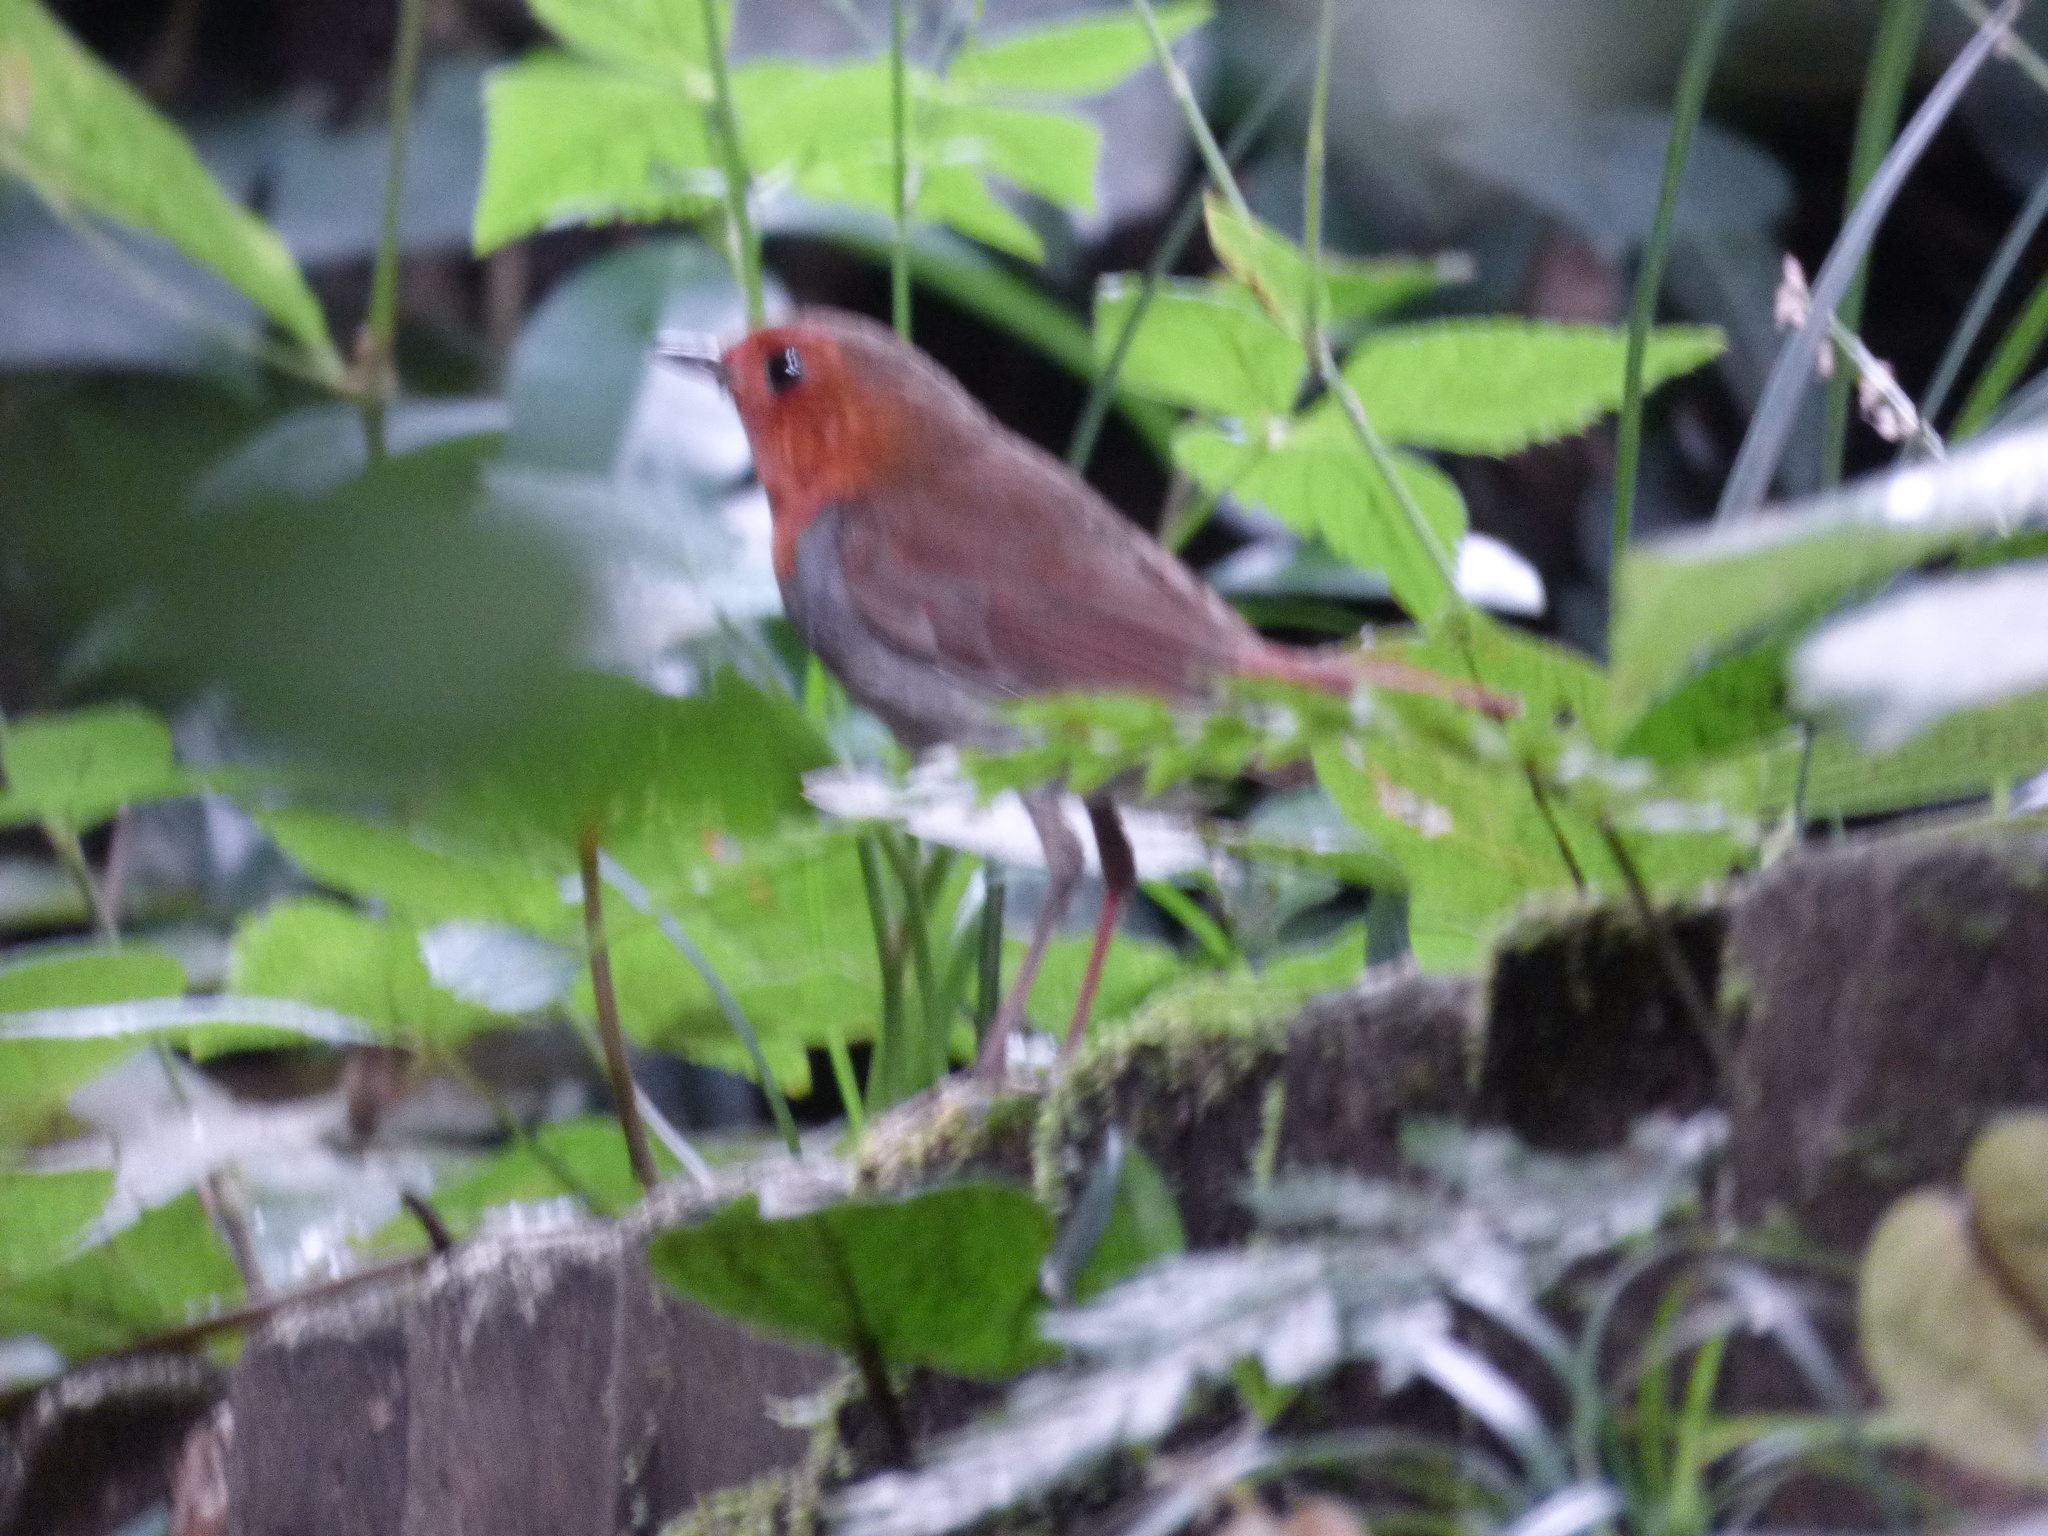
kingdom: Animalia
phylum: Chordata
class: Aves
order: Passeriformes
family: Muscicapidae
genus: Erithacus
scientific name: Erithacus akahige
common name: Japanese robin
